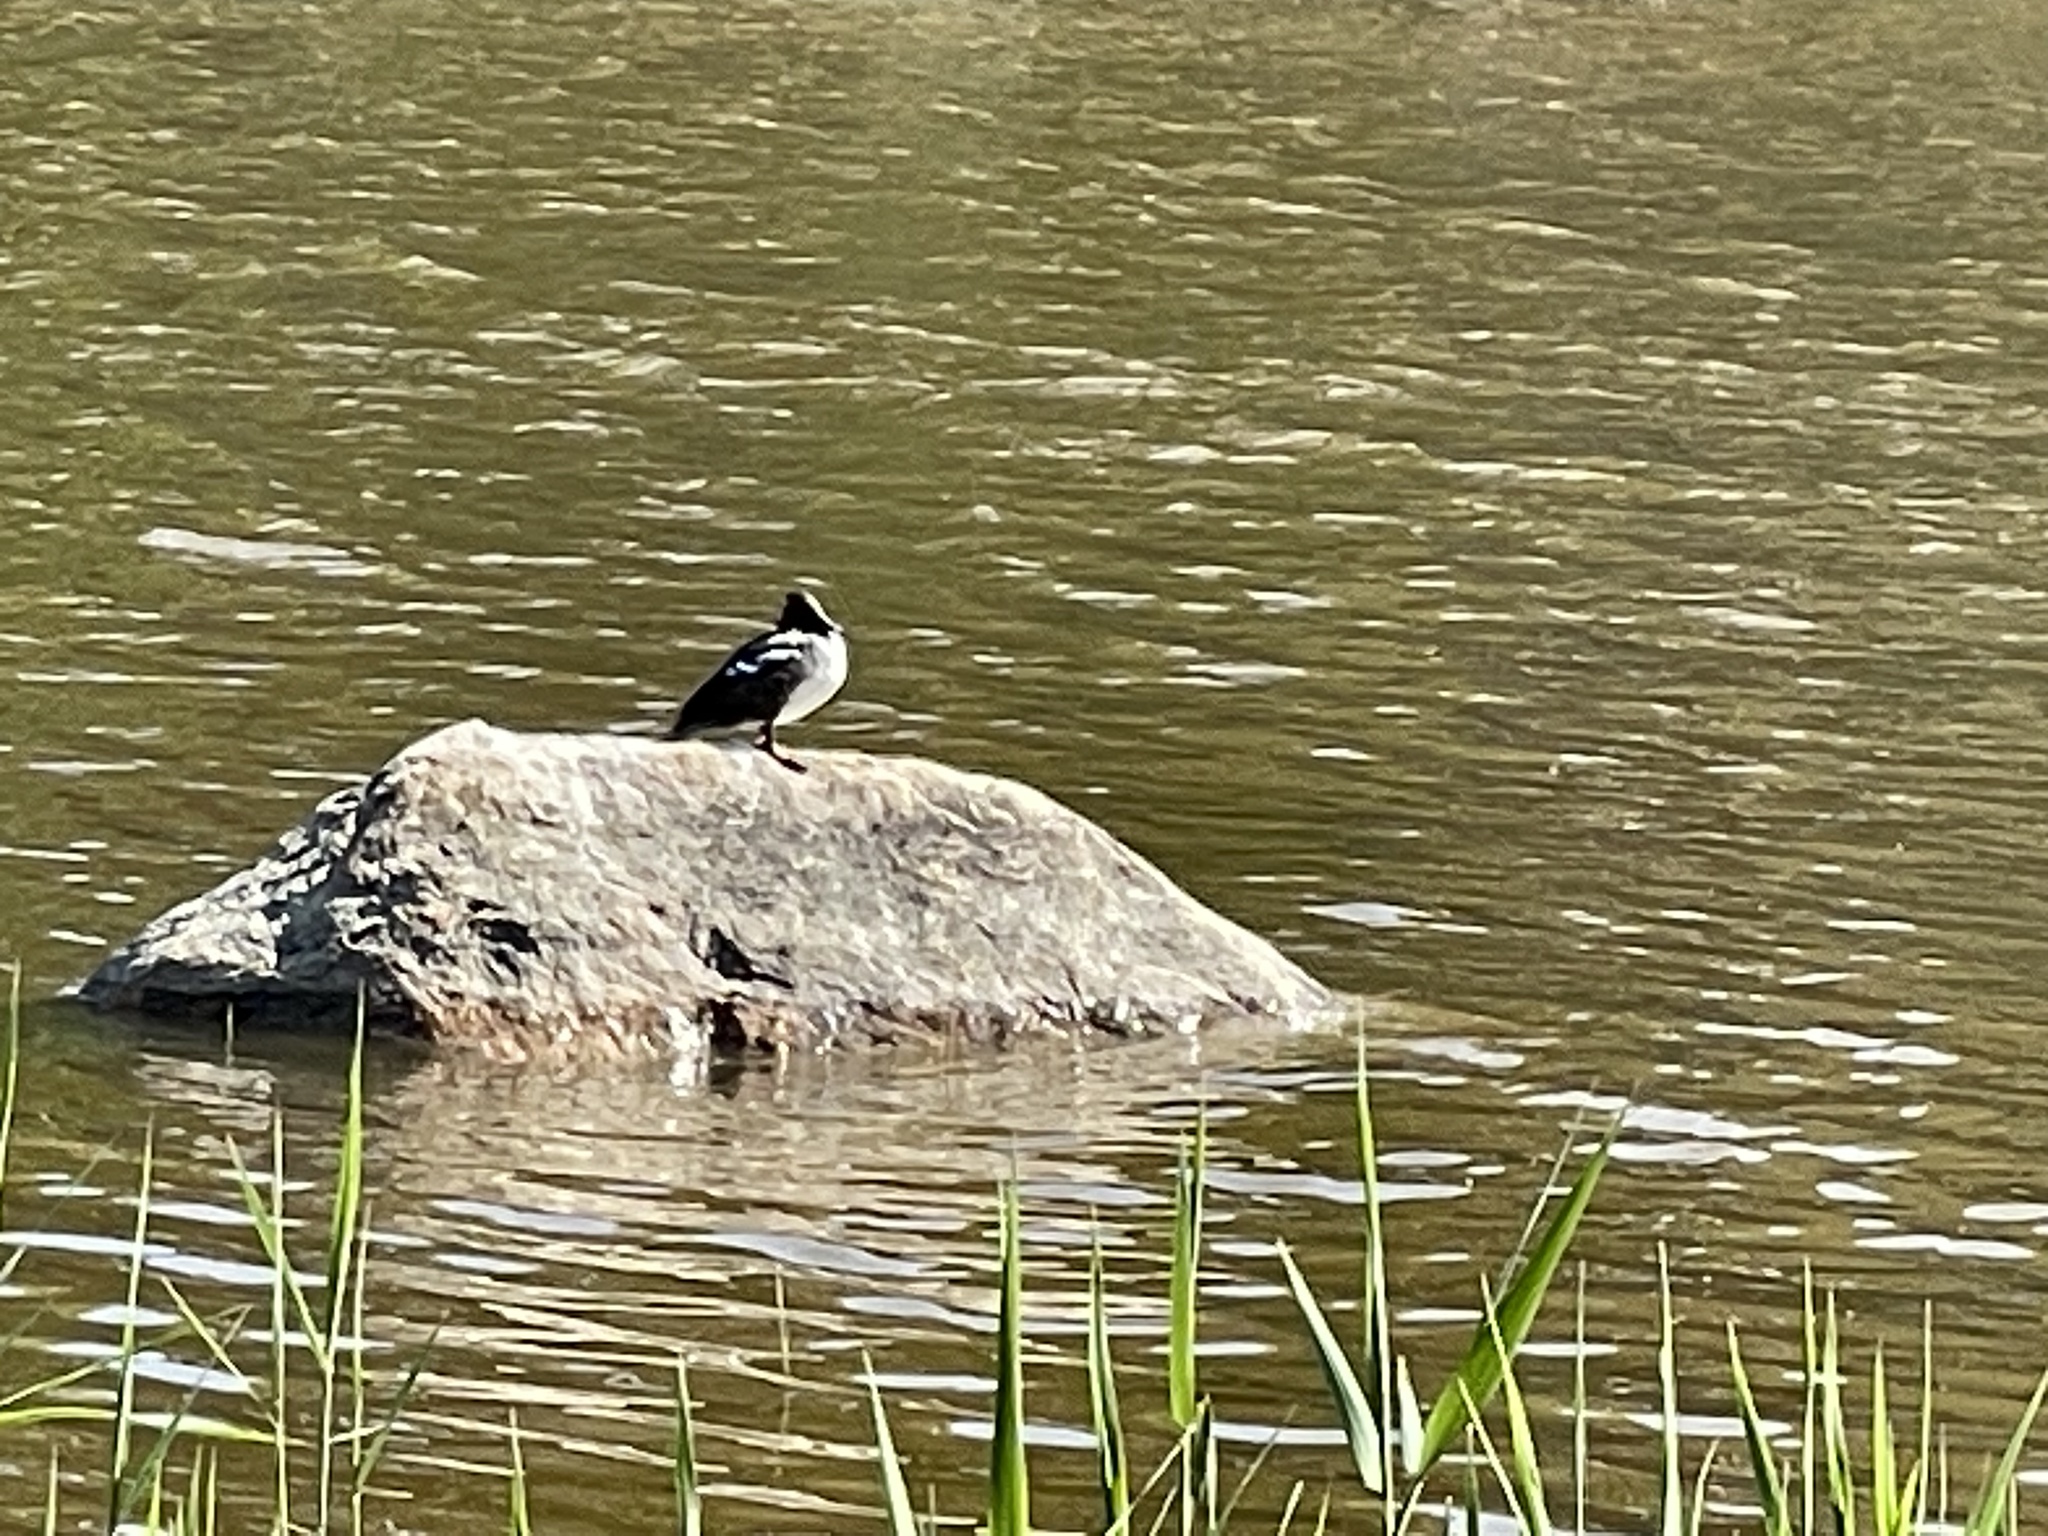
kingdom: Animalia
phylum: Chordata
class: Aves
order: Anseriformes
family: Anatidae
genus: Bucephala
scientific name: Bucephala clangula
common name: Common goldeneye
